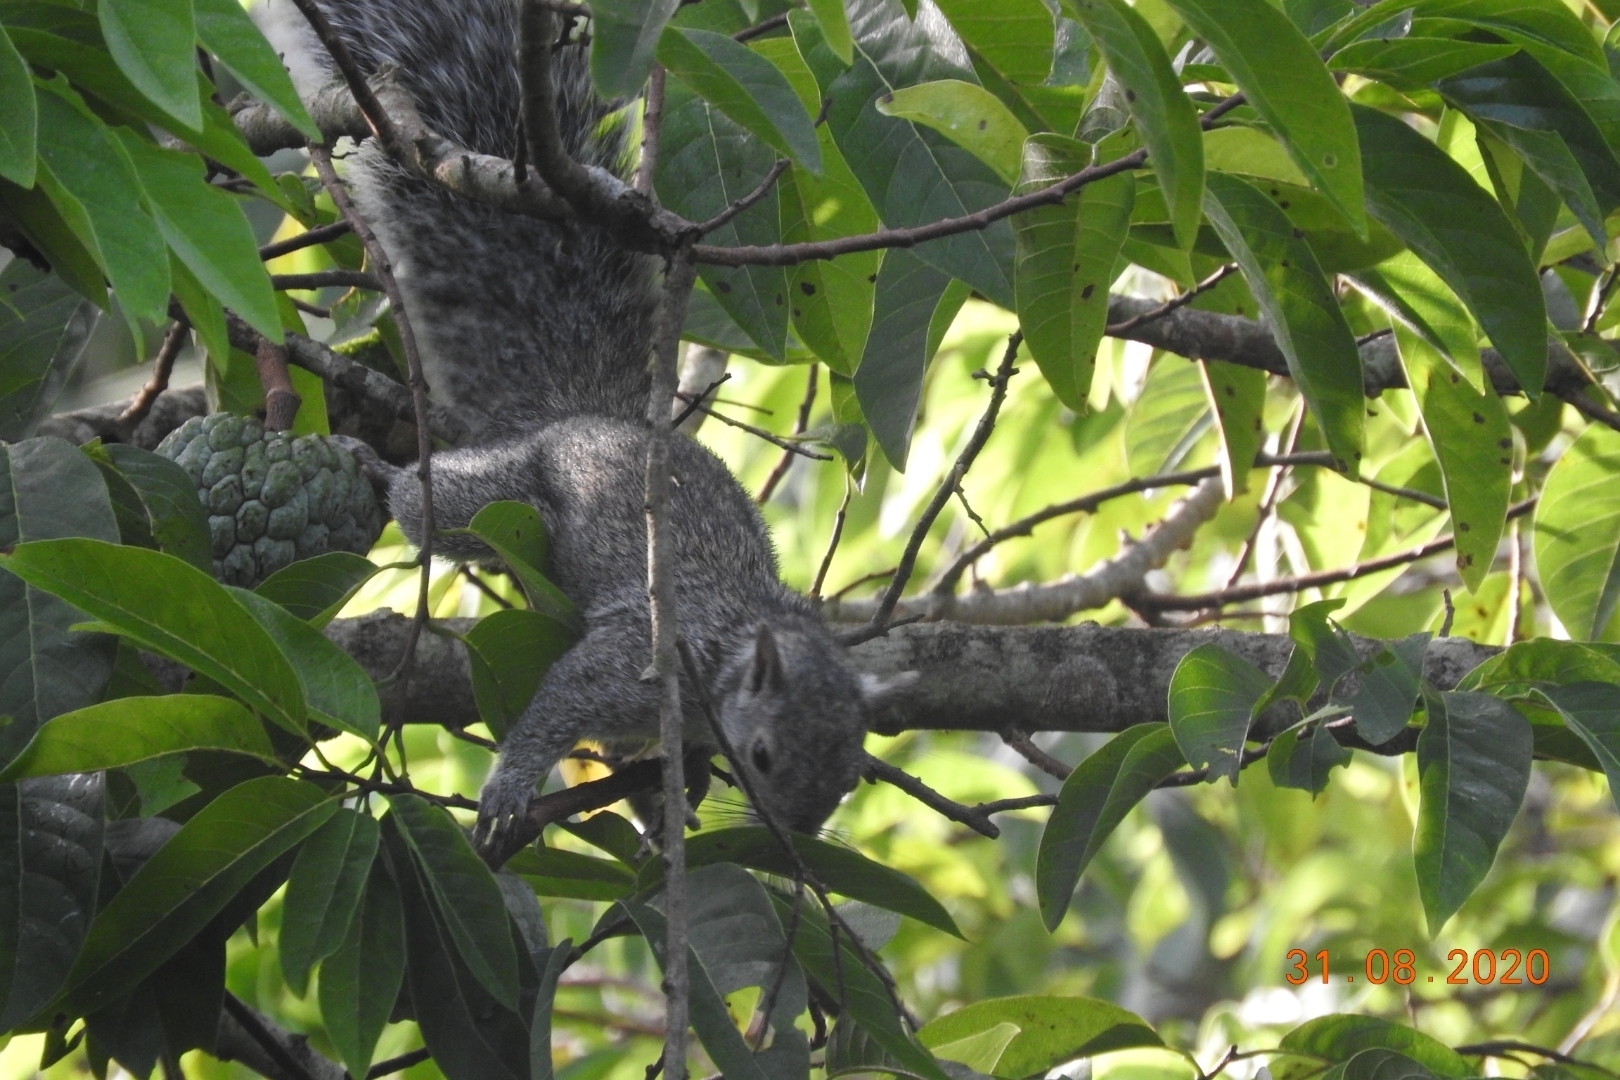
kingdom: Animalia
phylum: Chordata
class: Mammalia
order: Rodentia
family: Sciuridae
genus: Sciurus
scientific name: Sciurus yucatanensis
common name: Yucatan squirrel
